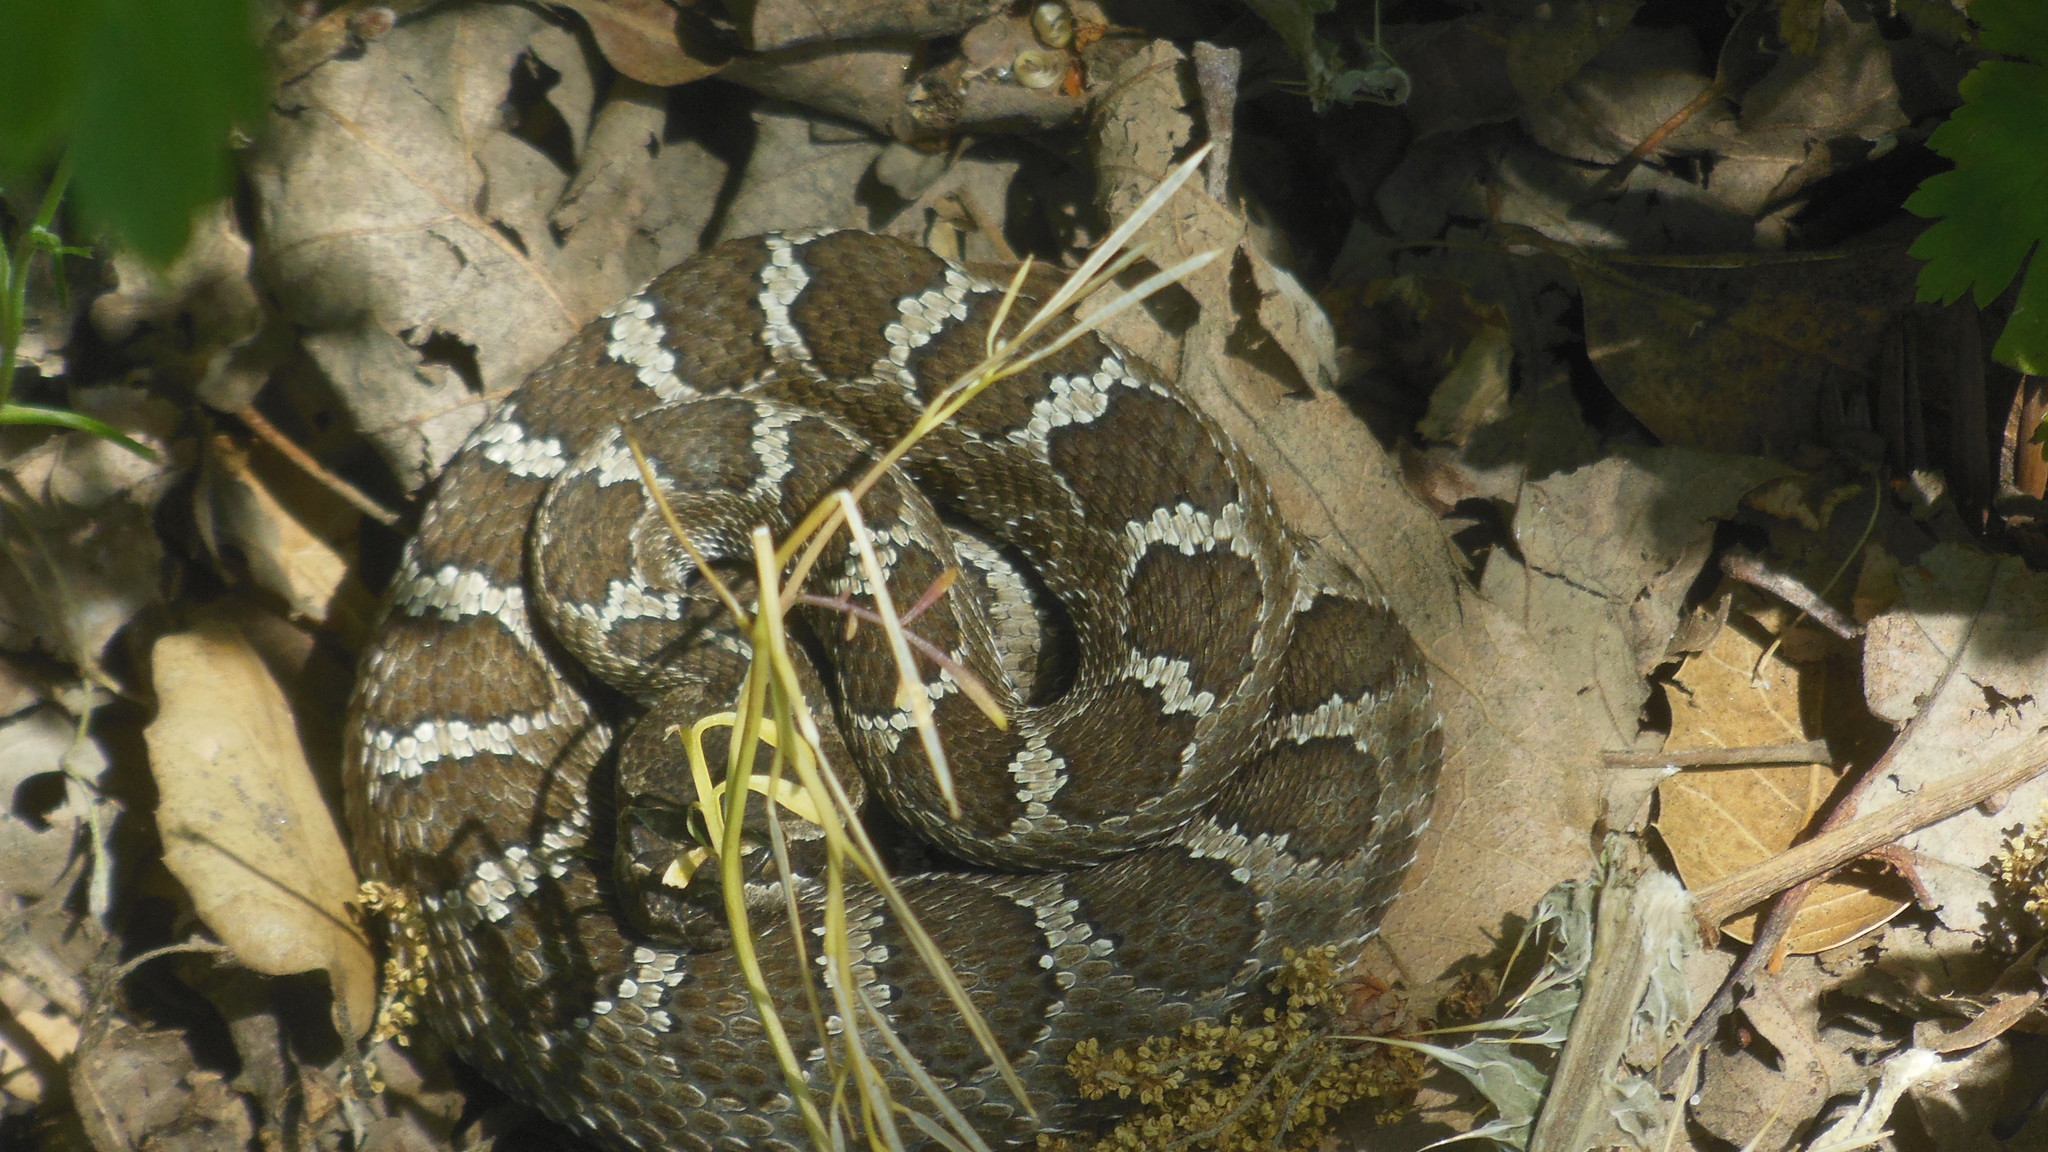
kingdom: Animalia
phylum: Chordata
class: Squamata
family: Viperidae
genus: Crotalus
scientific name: Crotalus oreganus
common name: Abyssus
